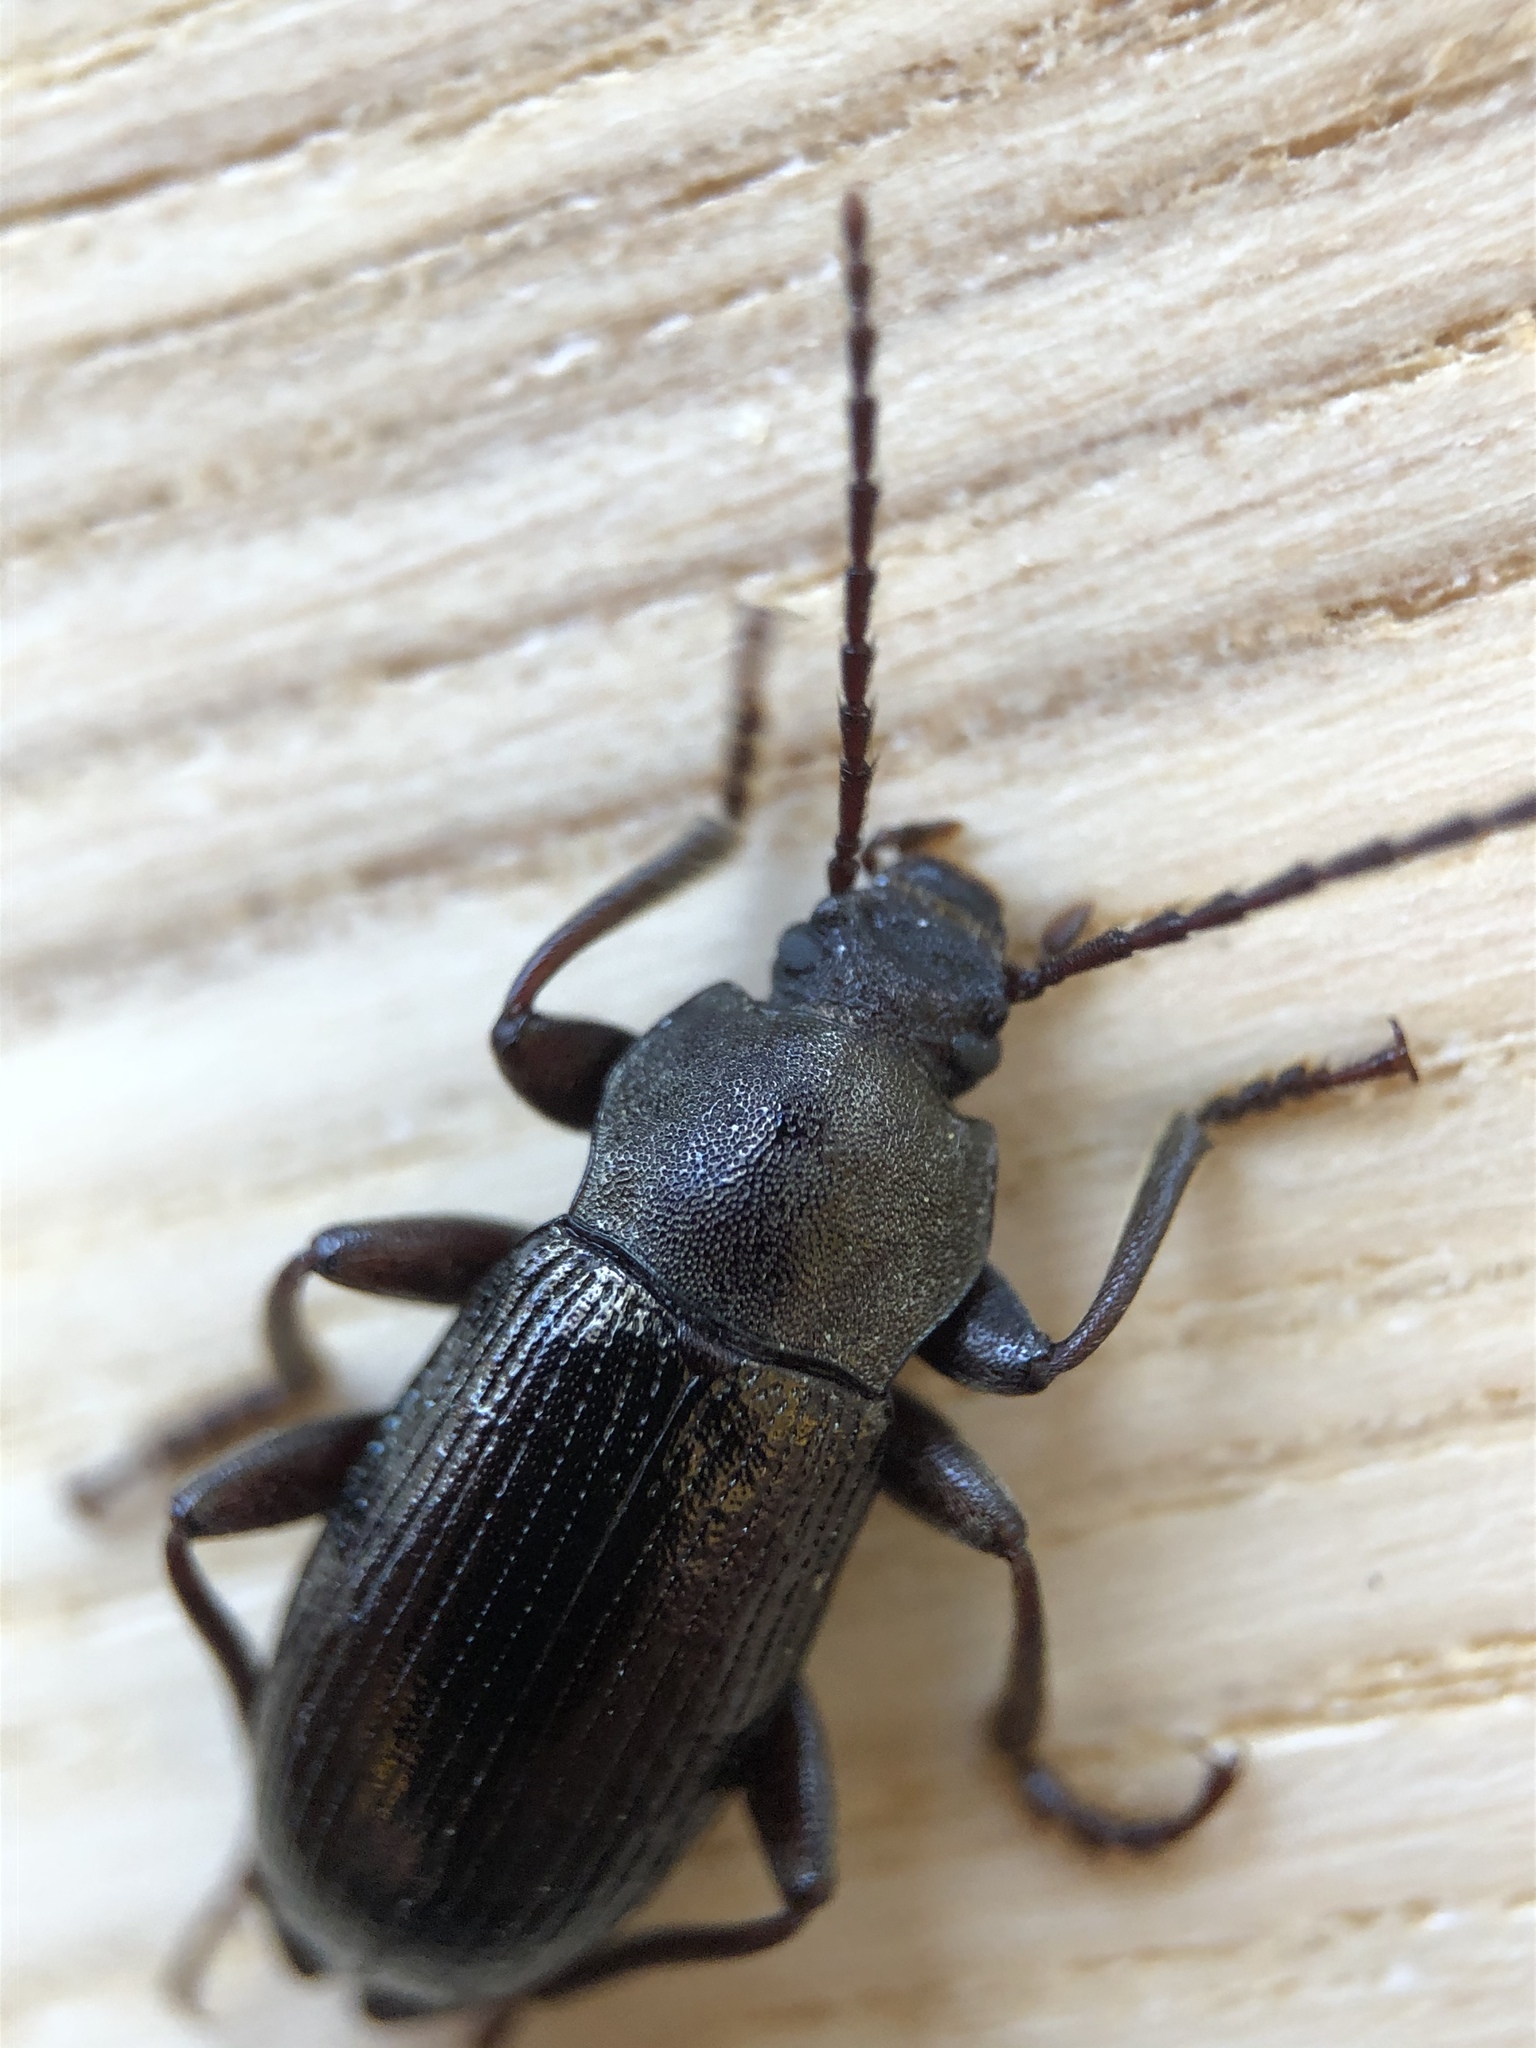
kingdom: Animalia
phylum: Arthropoda
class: Insecta
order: Coleoptera
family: Tenebrionidae
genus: Stenomax
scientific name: Stenomax aeneus
